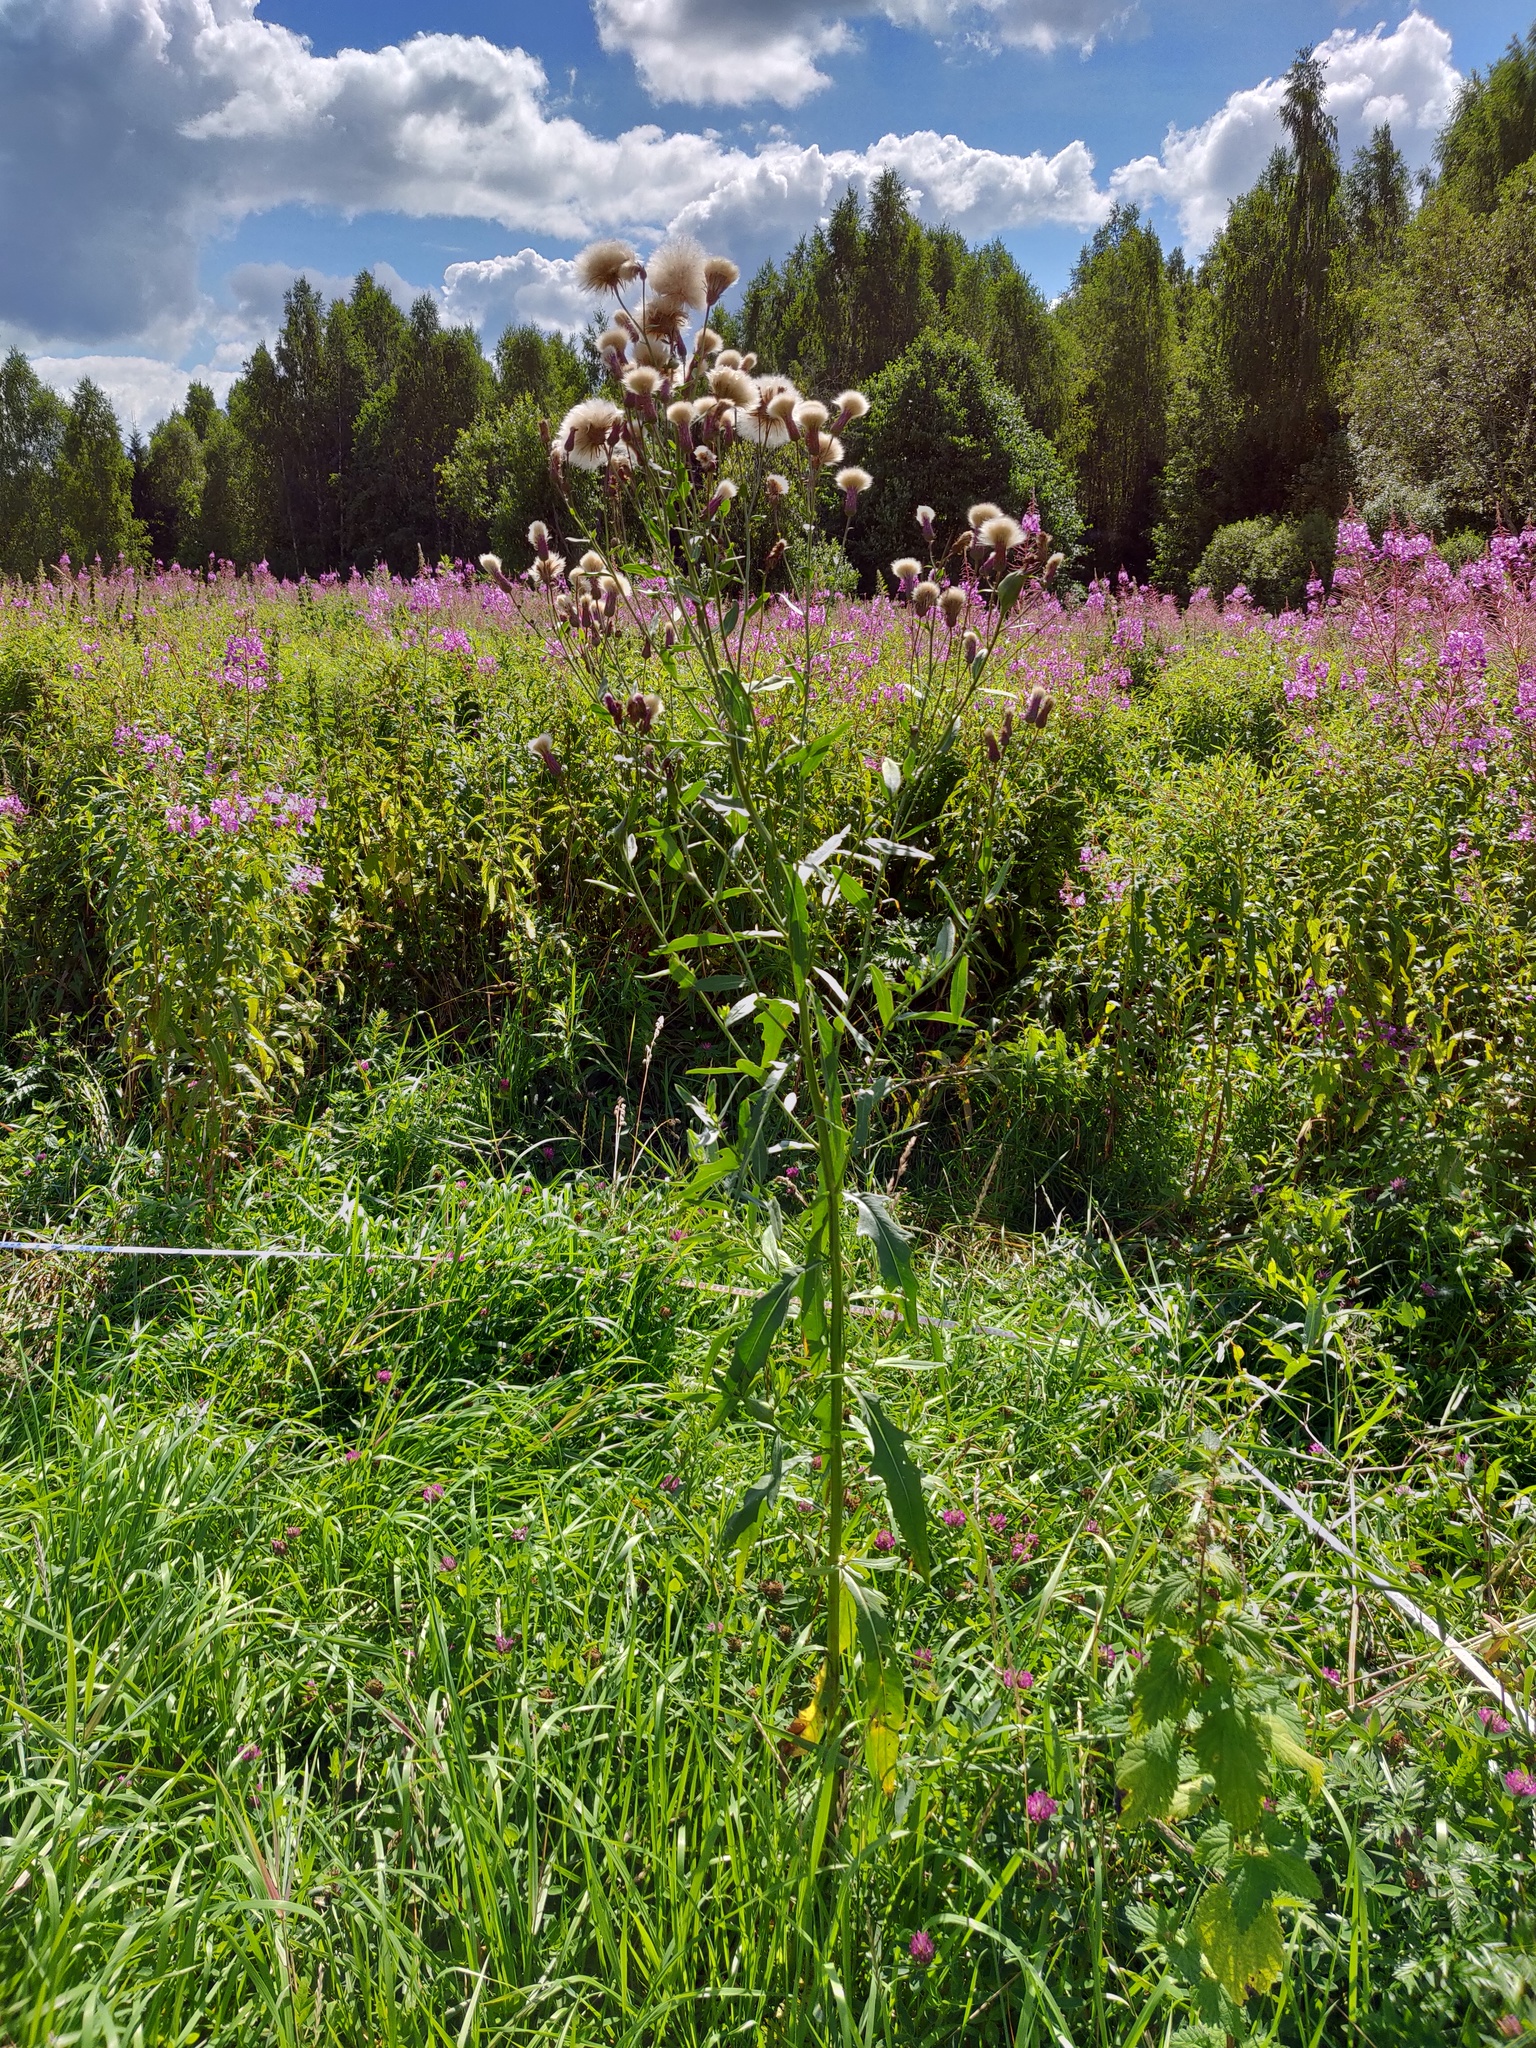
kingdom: Plantae
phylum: Tracheophyta
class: Magnoliopsida
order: Asterales
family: Asteraceae
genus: Cirsium
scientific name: Cirsium arvense
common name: Creeping thistle
